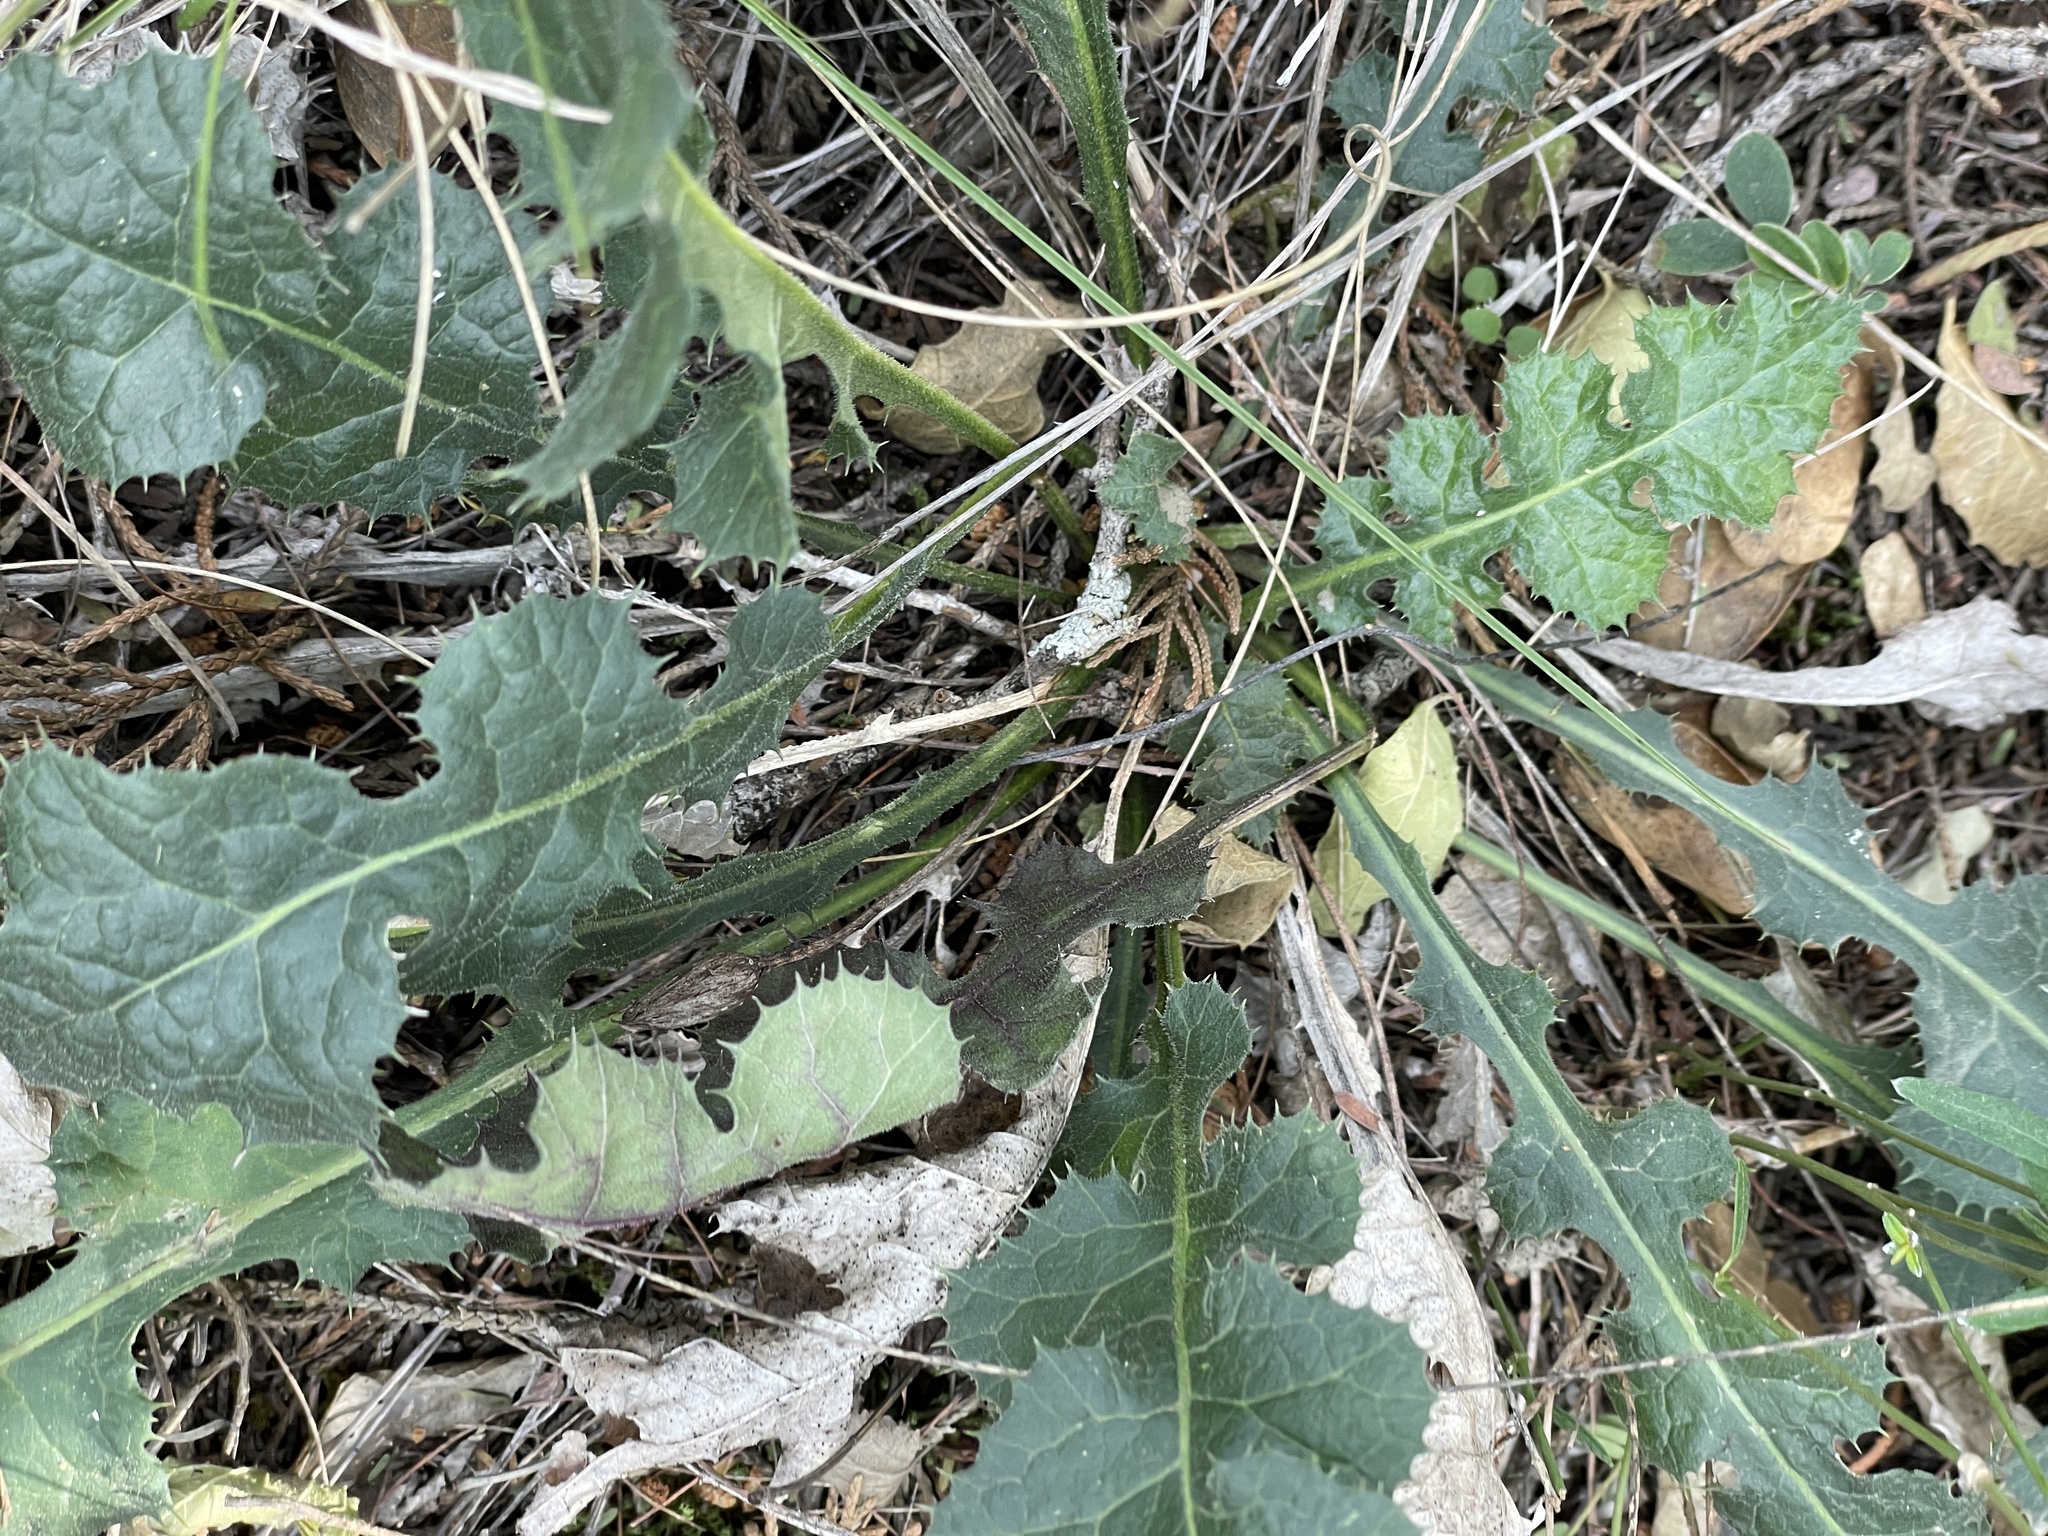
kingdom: Plantae
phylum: Tracheophyta
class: Magnoliopsida
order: Asterales
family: Asteraceae
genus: Acourtia
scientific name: Acourtia runcinata
